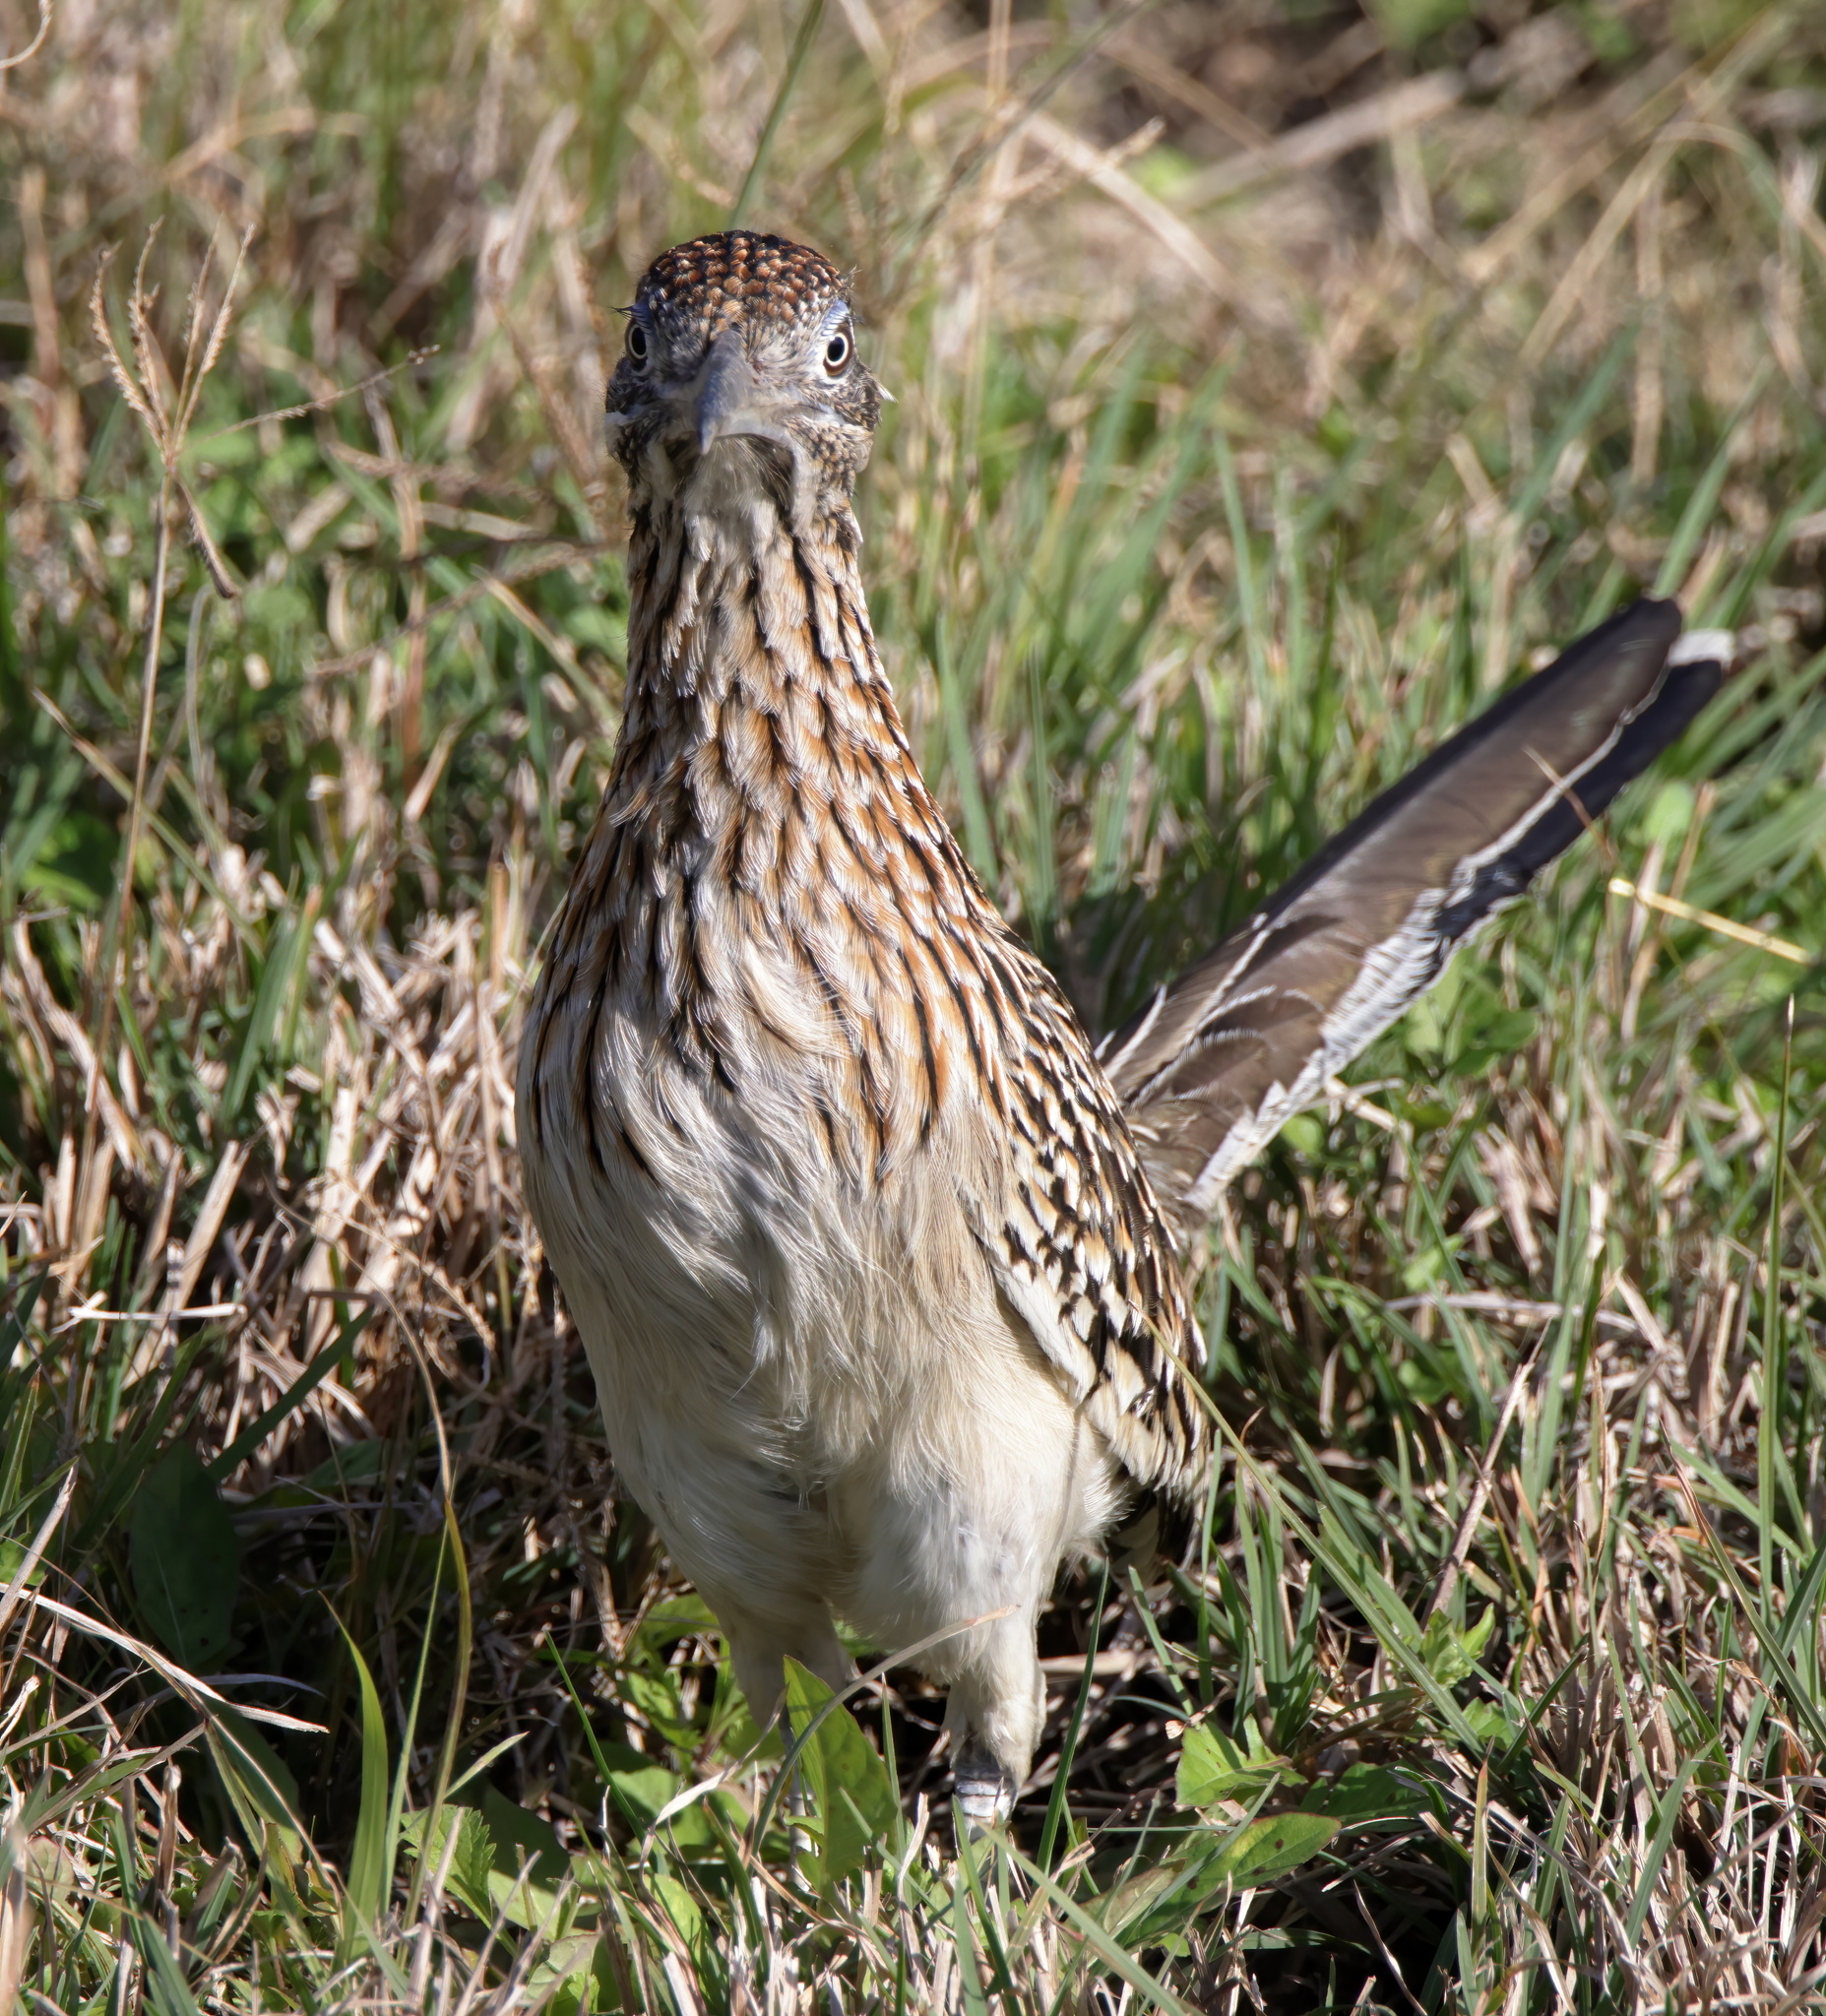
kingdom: Animalia
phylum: Chordata
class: Aves
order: Cuculiformes
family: Cuculidae
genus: Geococcyx
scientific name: Geococcyx californianus
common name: Greater roadrunner
